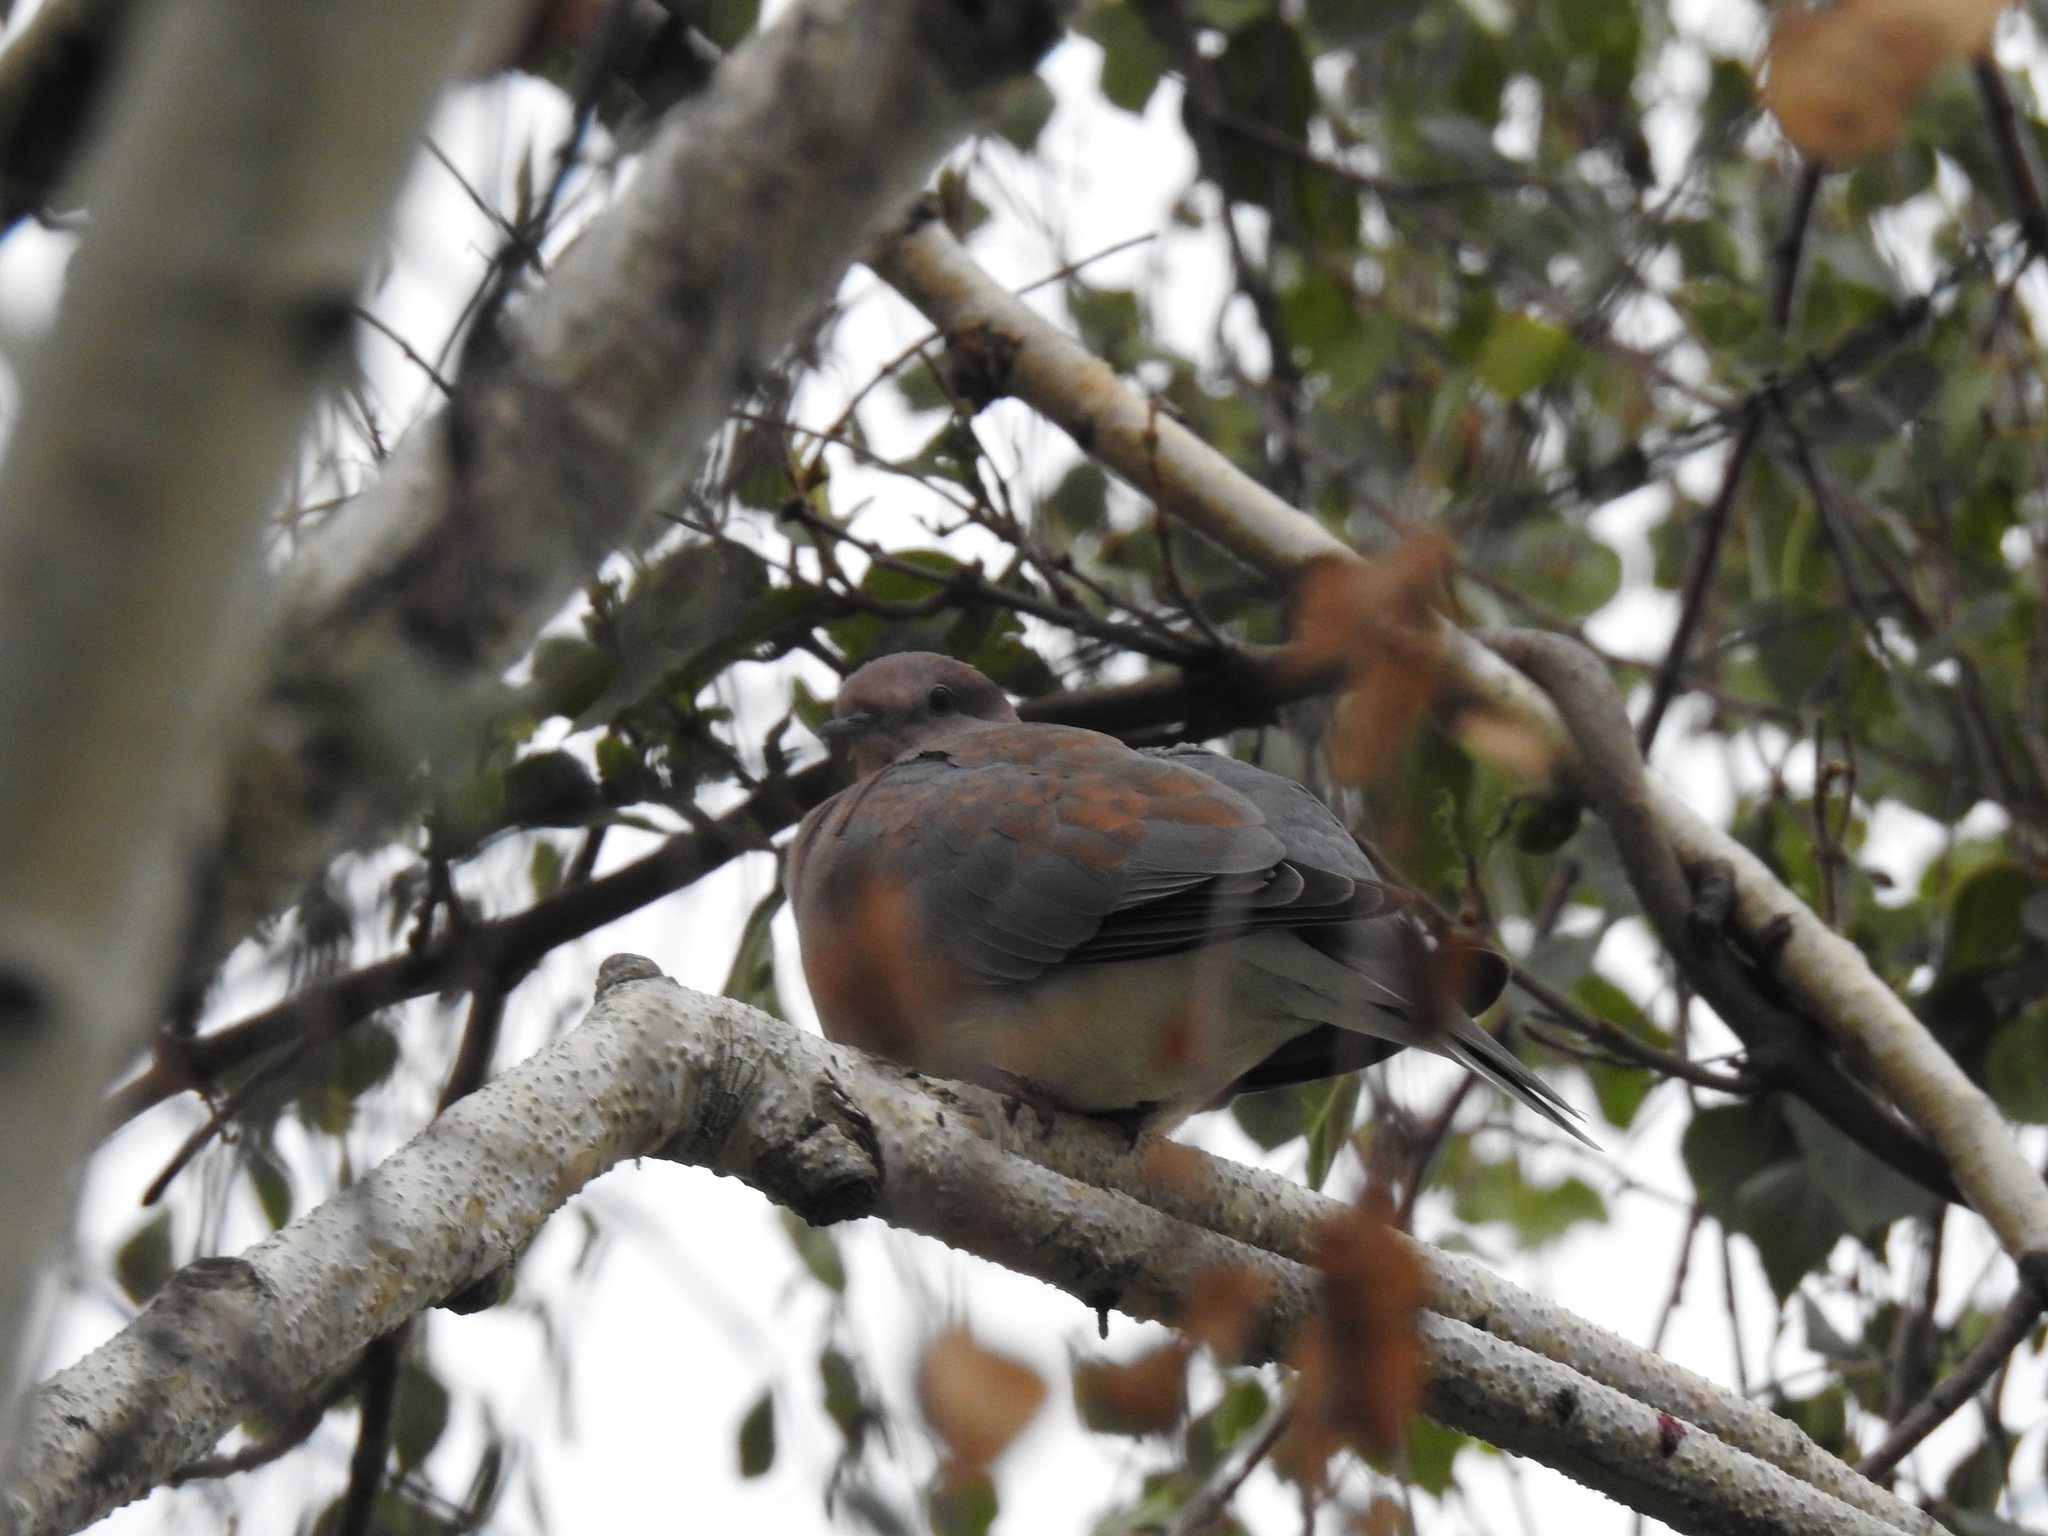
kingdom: Animalia
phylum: Chordata
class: Aves
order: Columbiformes
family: Columbidae
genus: Spilopelia
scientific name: Spilopelia senegalensis
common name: Laughing dove
